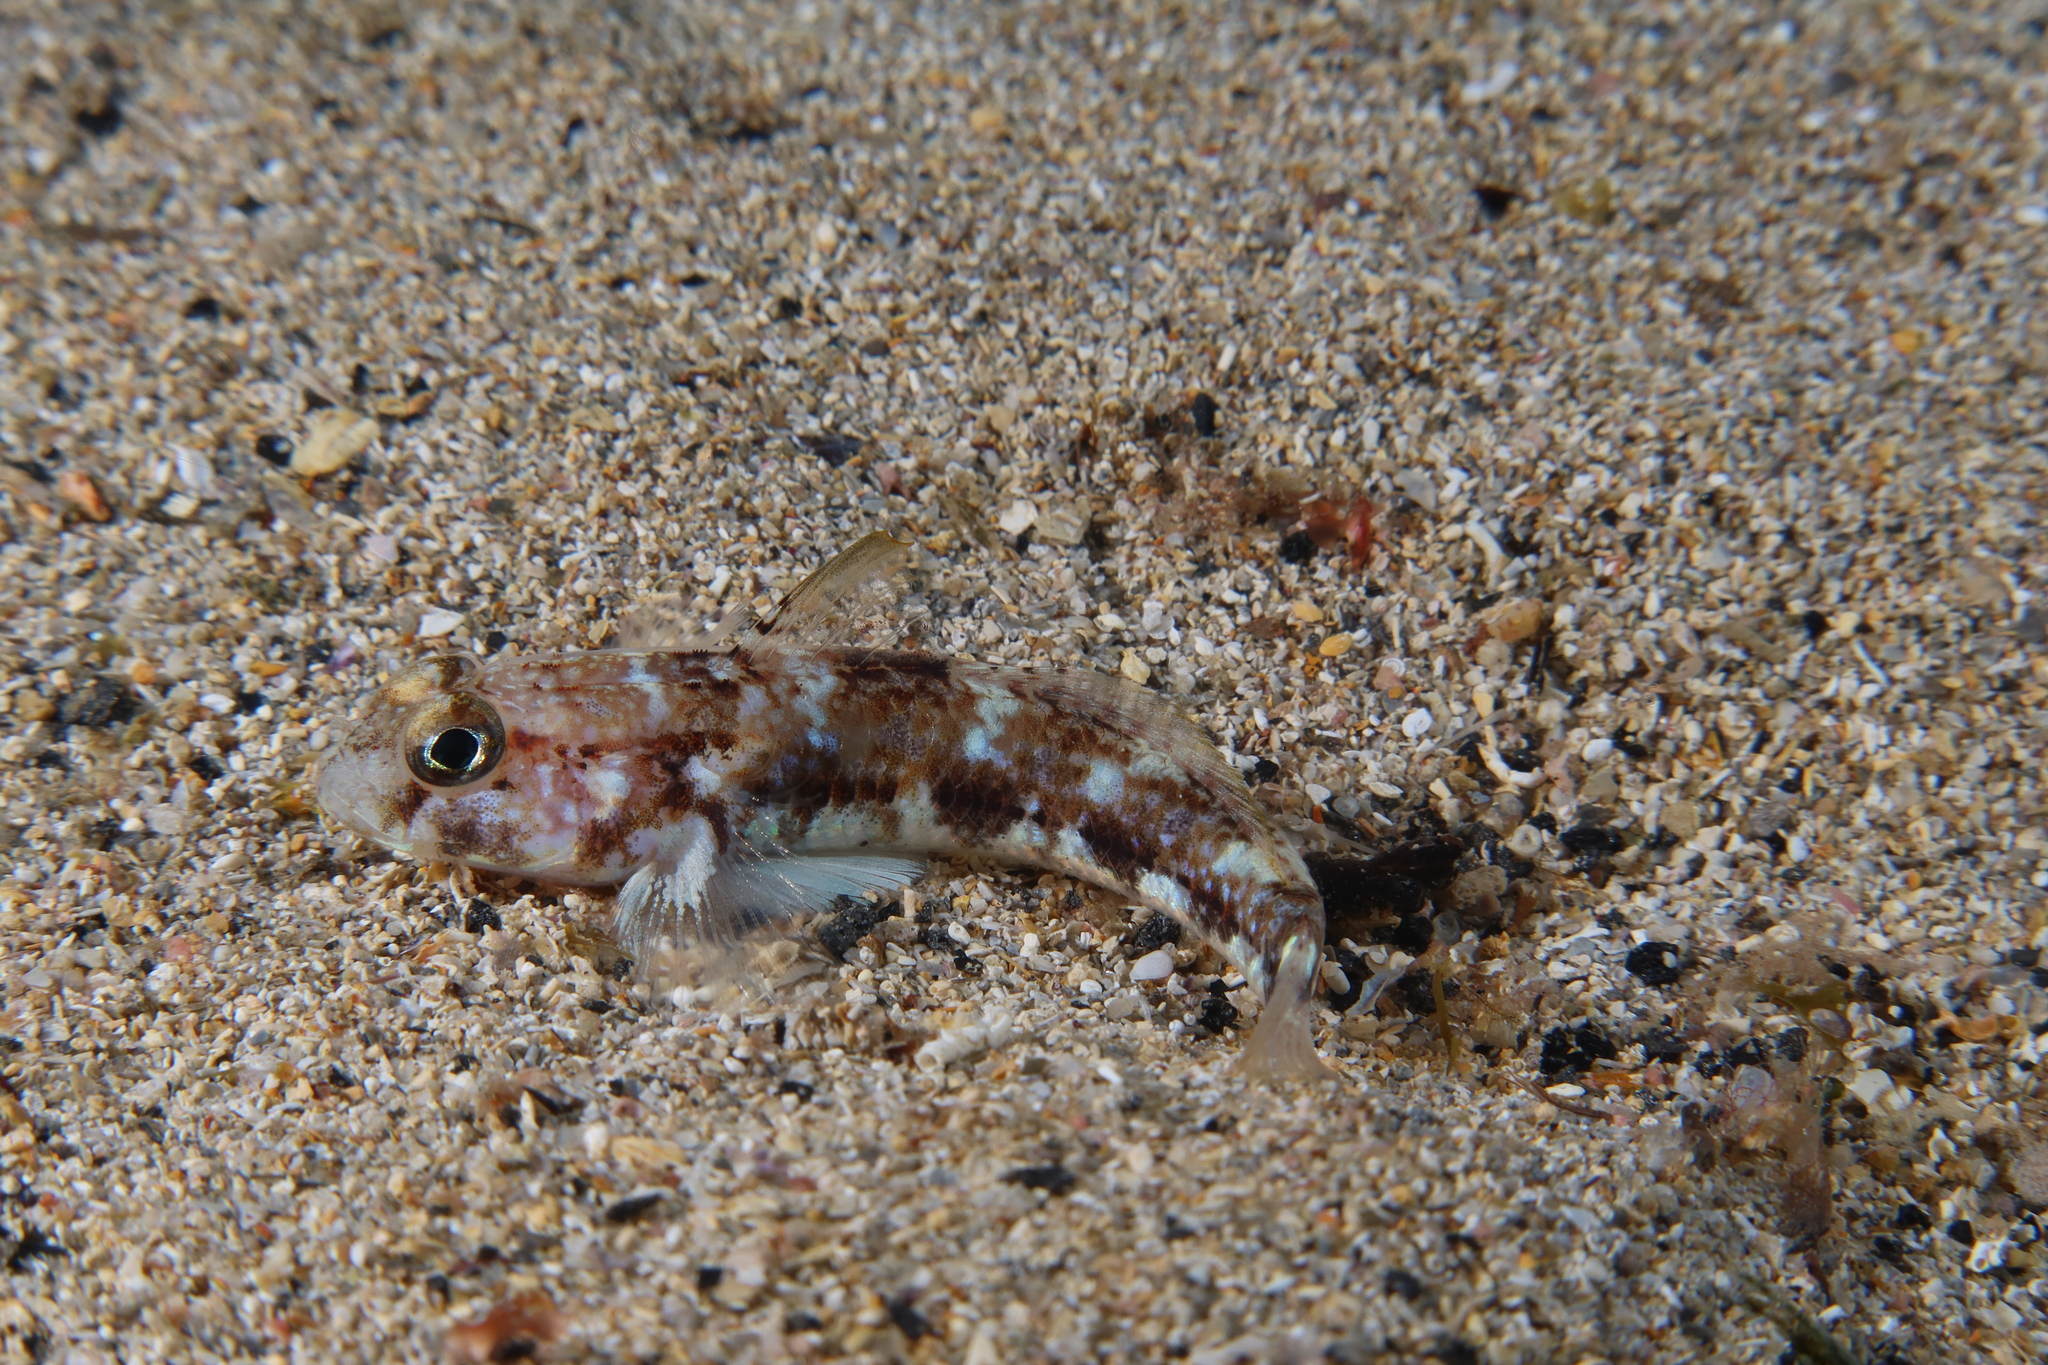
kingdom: Animalia
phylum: Chordata
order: Perciformes
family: Gobiidae
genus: Gobius
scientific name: Gobius roulei
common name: Roule's goby
